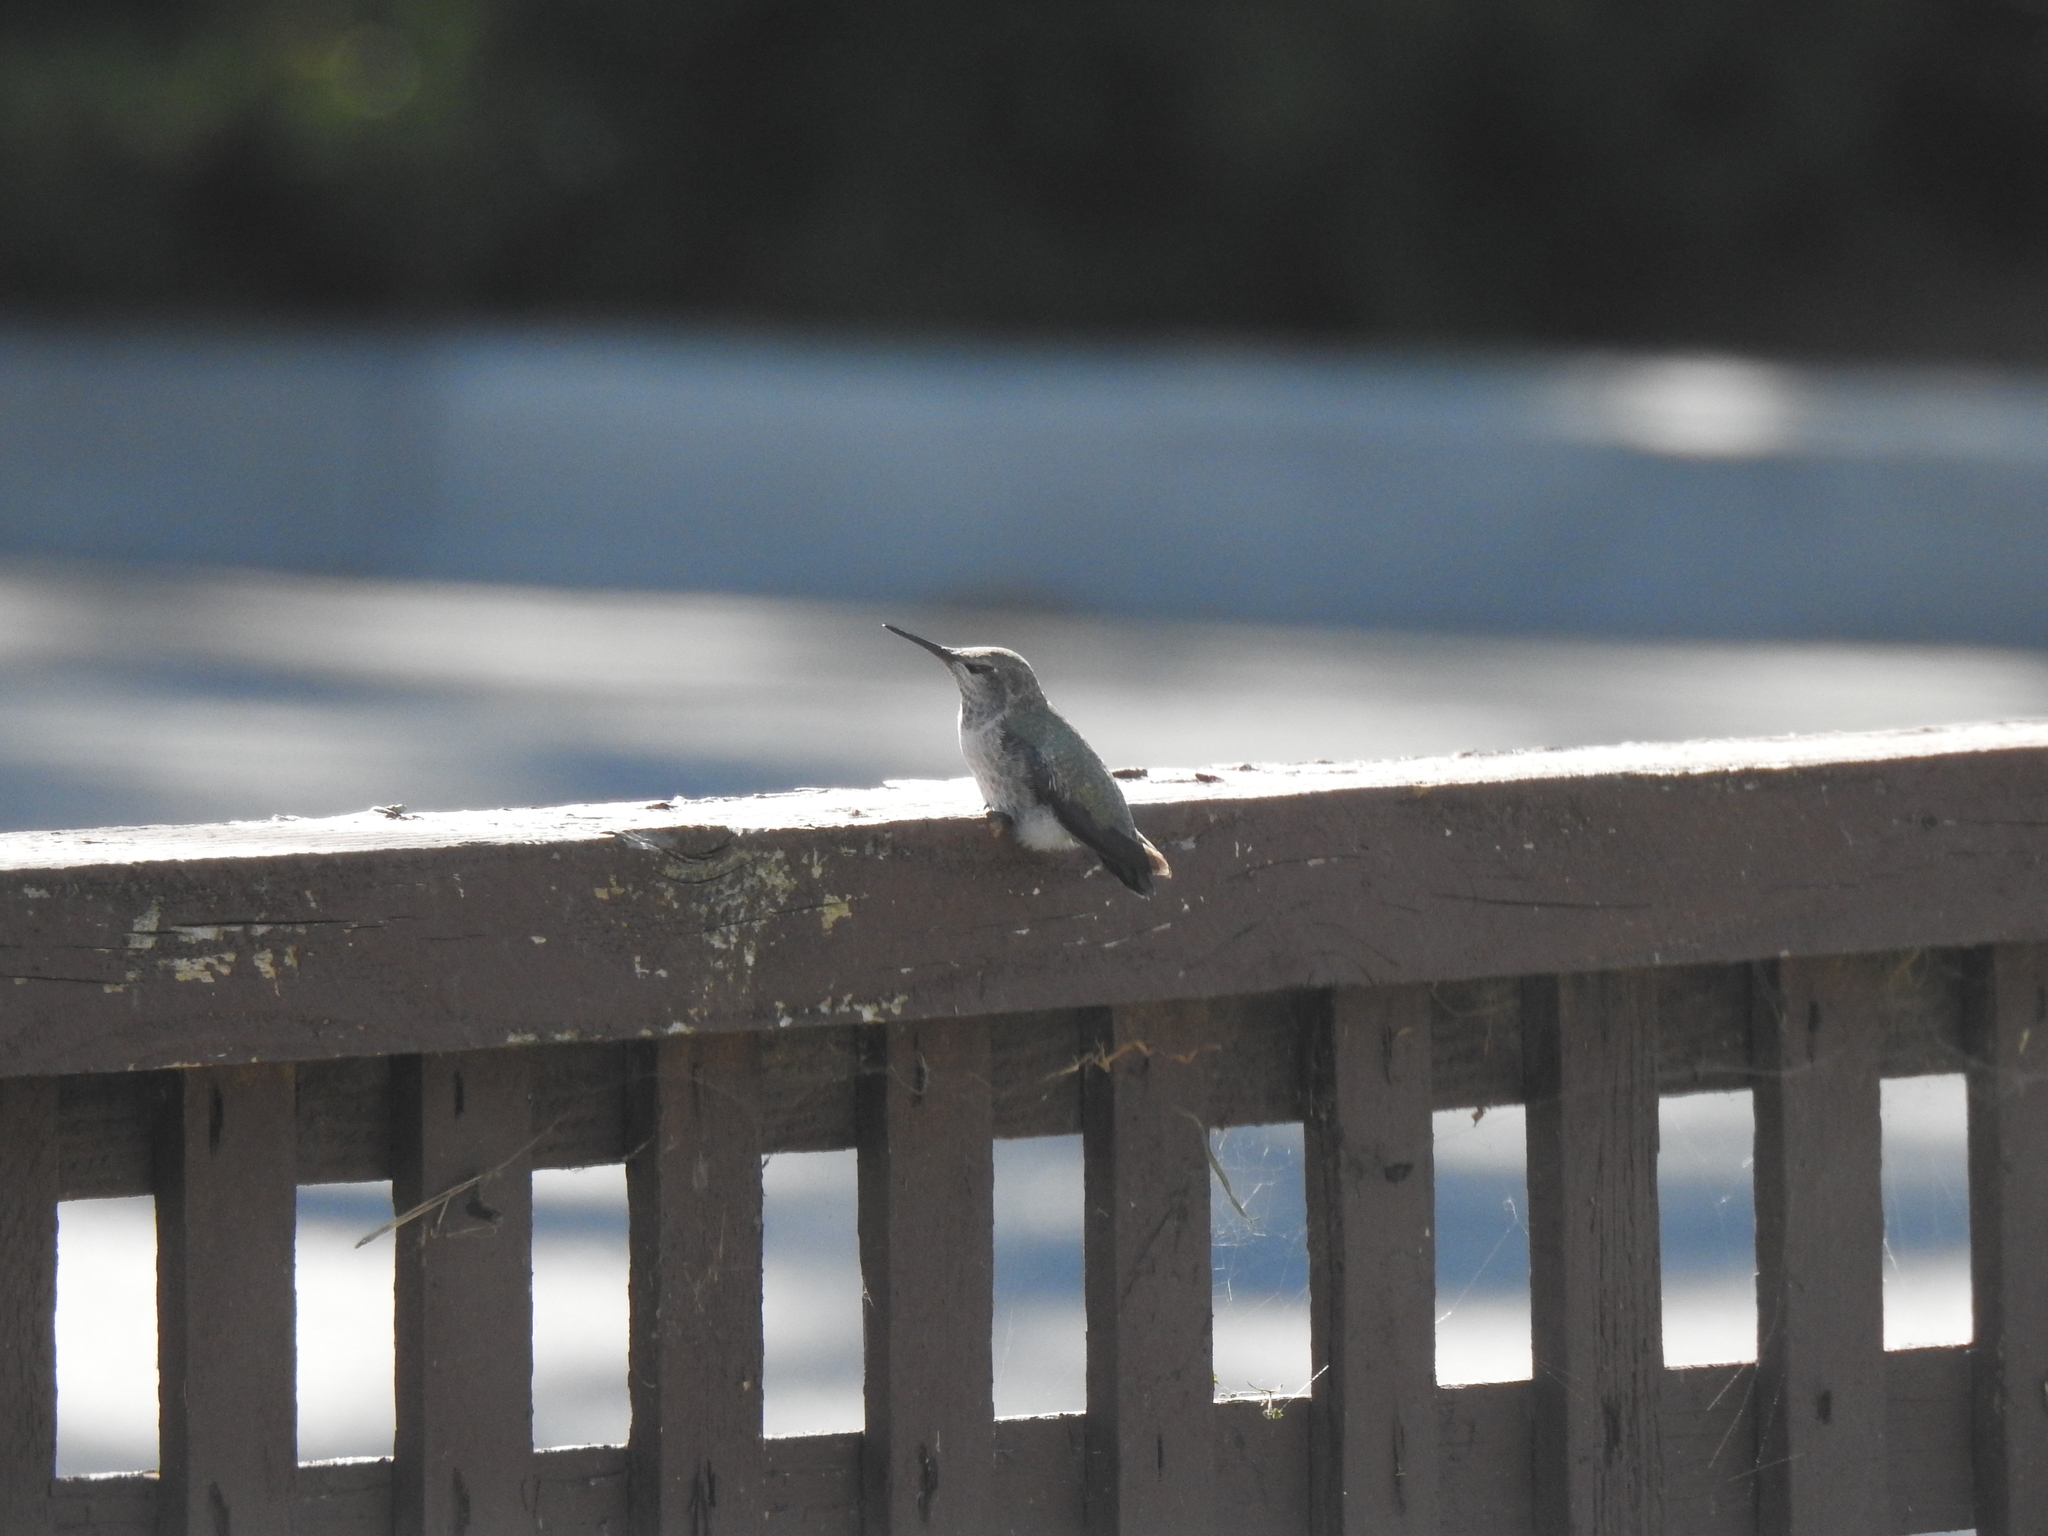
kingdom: Animalia
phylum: Chordata
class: Aves
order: Apodiformes
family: Trochilidae
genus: Calypte
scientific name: Calypte anna
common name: Anna's hummingbird
